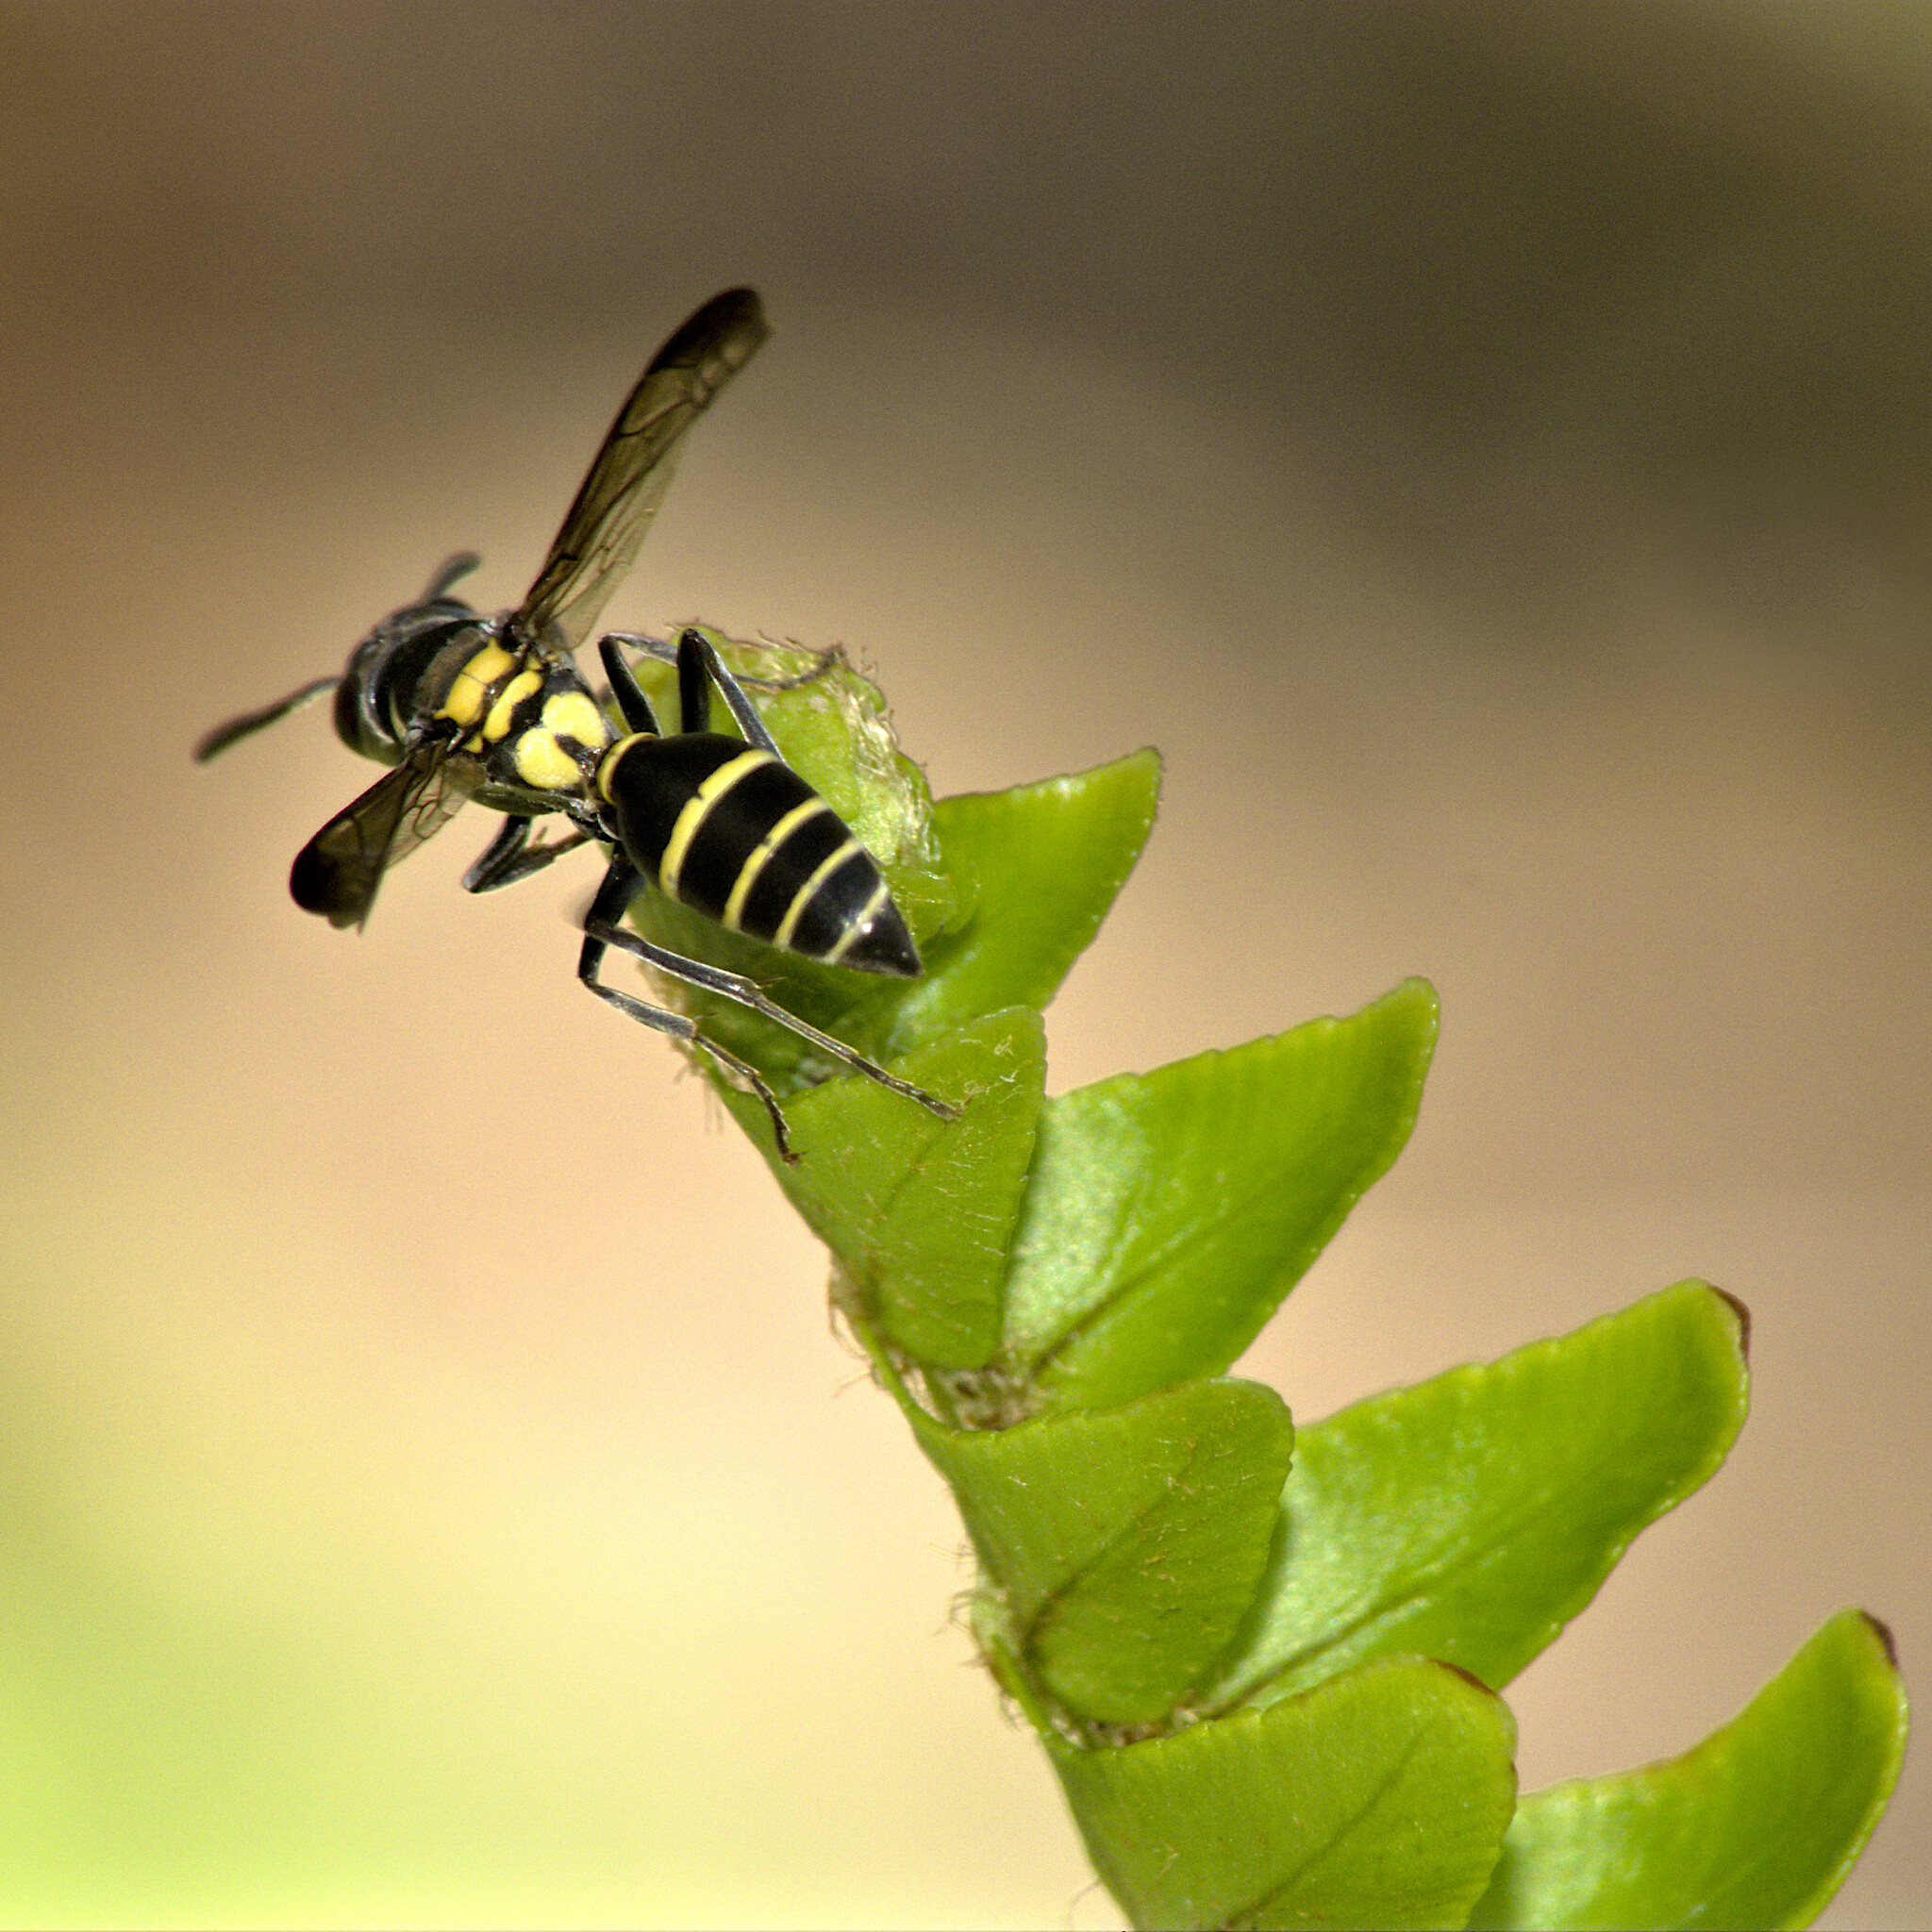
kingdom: Animalia
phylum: Arthropoda
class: Insecta
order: Hymenoptera
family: Eumenidae
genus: Polybia
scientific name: Polybia occidentalis
